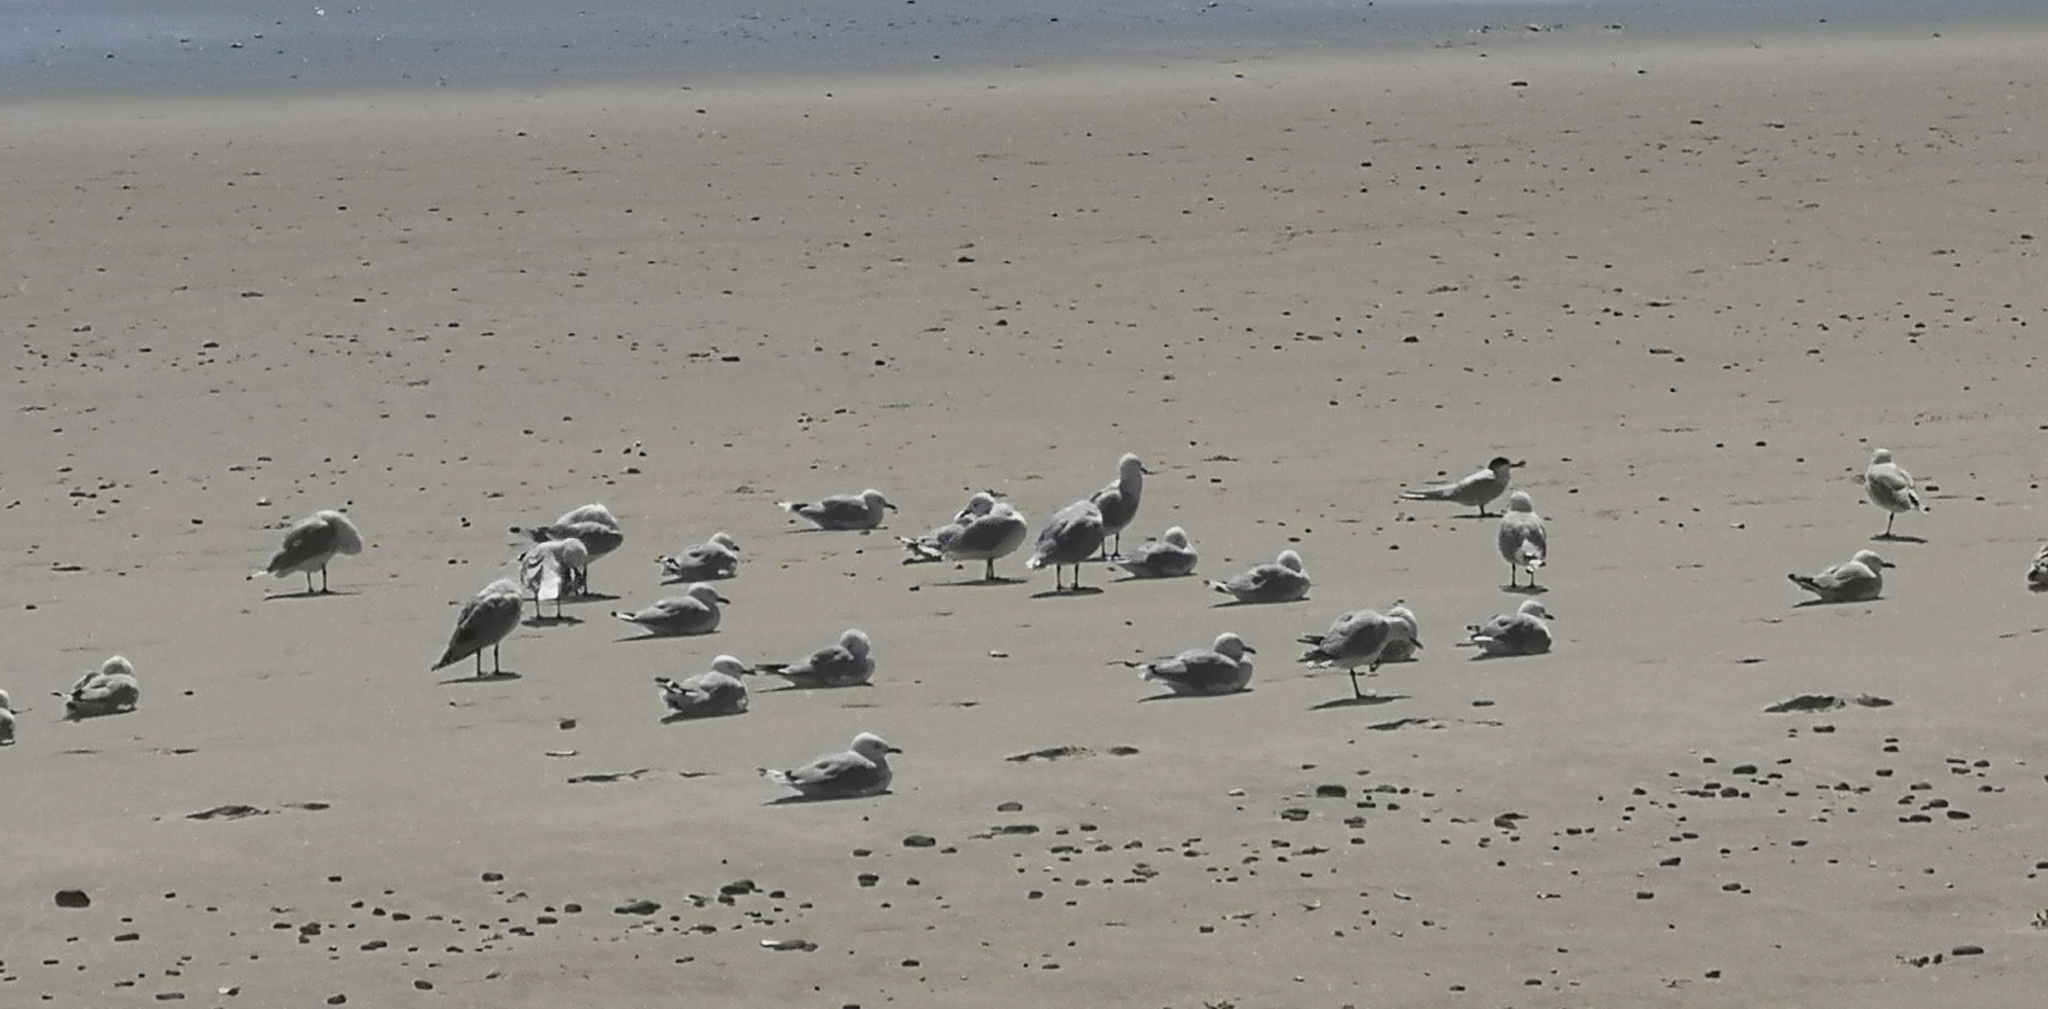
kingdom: Animalia
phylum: Chordata
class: Aves
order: Charadriiformes
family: Laridae
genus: Sterna
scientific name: Sterna striata
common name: White-fronted tern
